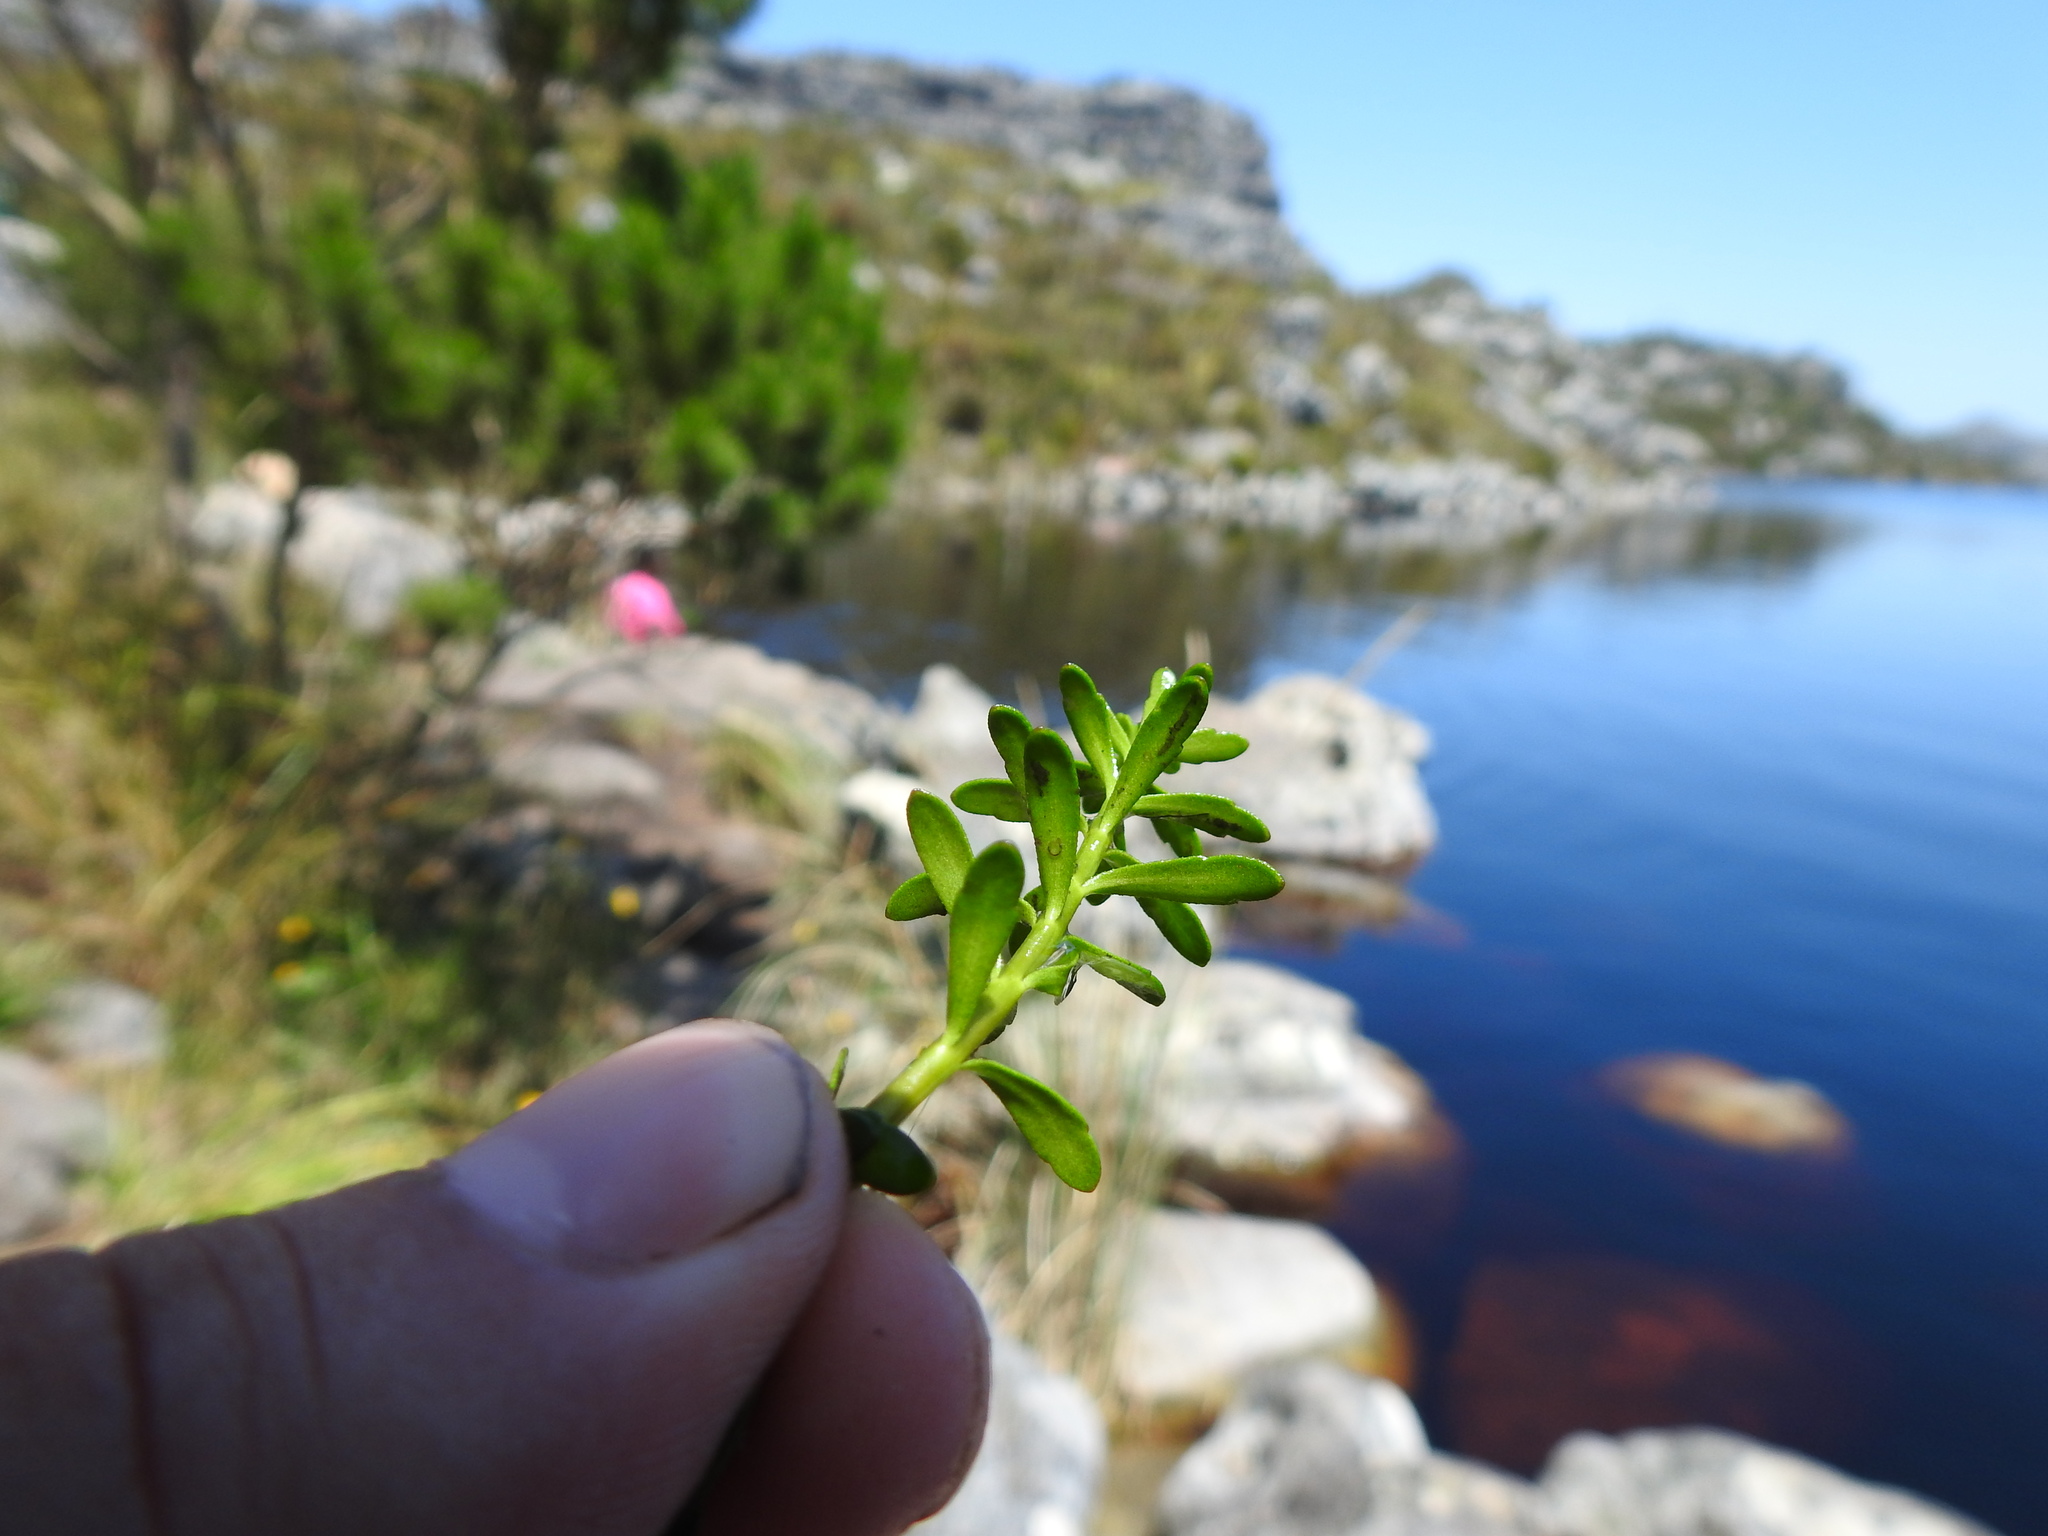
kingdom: Plantae
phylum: Tracheophyta
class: Magnoliopsida
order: Saxifragales
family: Haloragaceae
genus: Laurembergia
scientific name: Laurembergia repens
